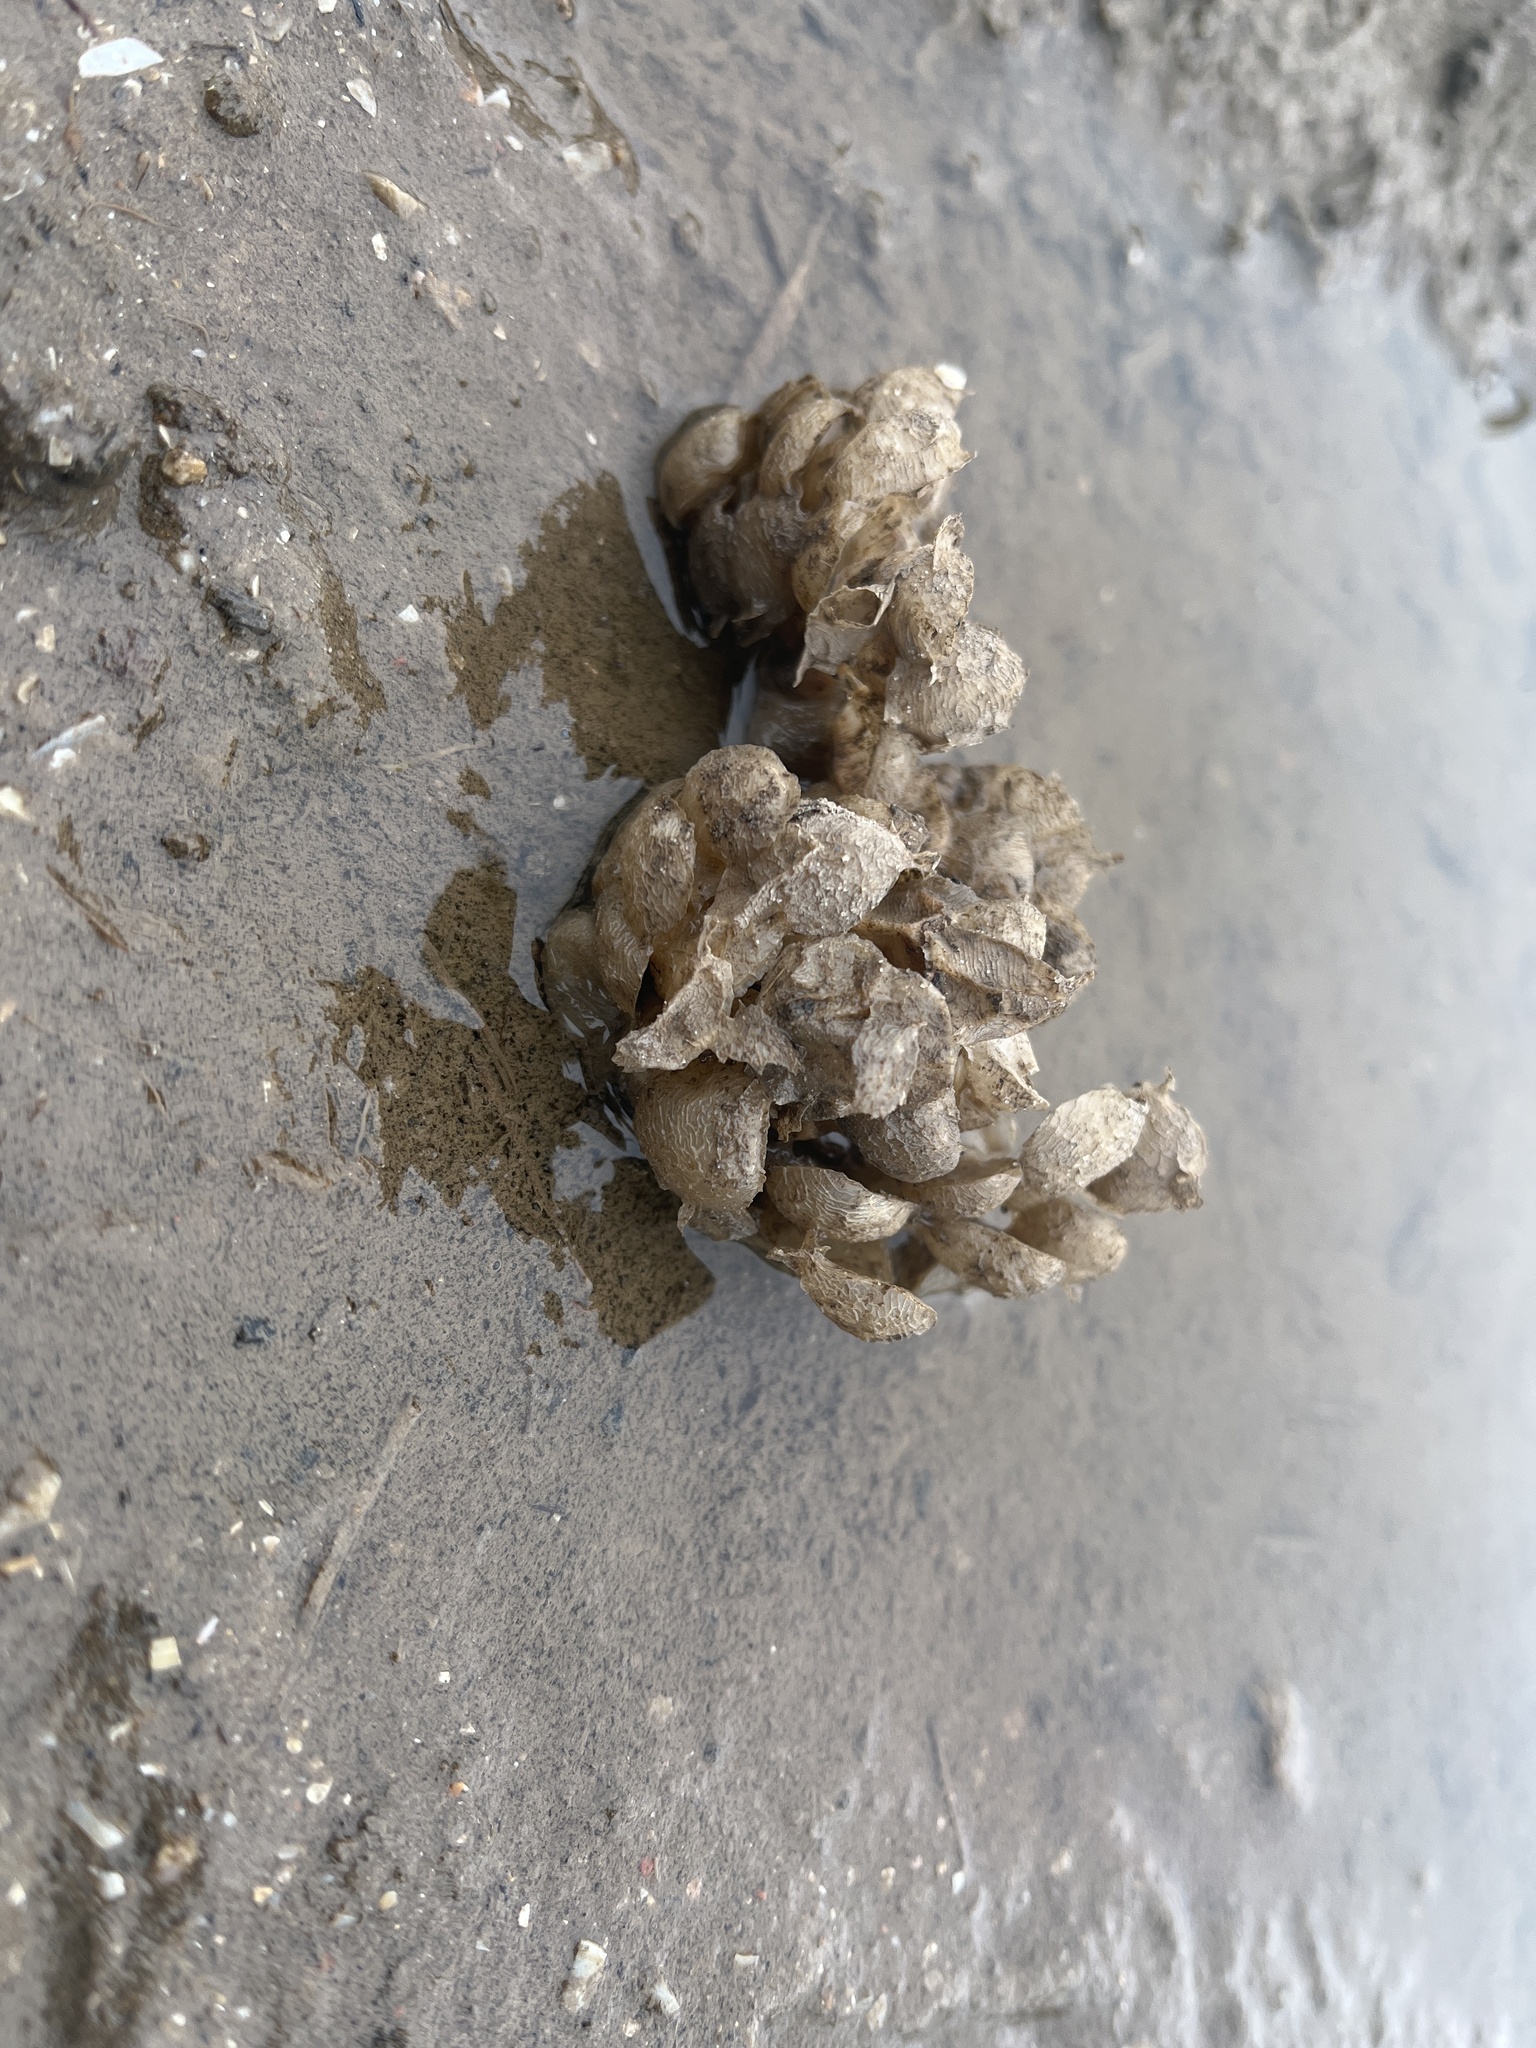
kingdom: Animalia
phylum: Mollusca
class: Gastropoda
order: Neogastropoda
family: Buccinidae
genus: Buccinum
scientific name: Buccinum undatum
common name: Common whelk
